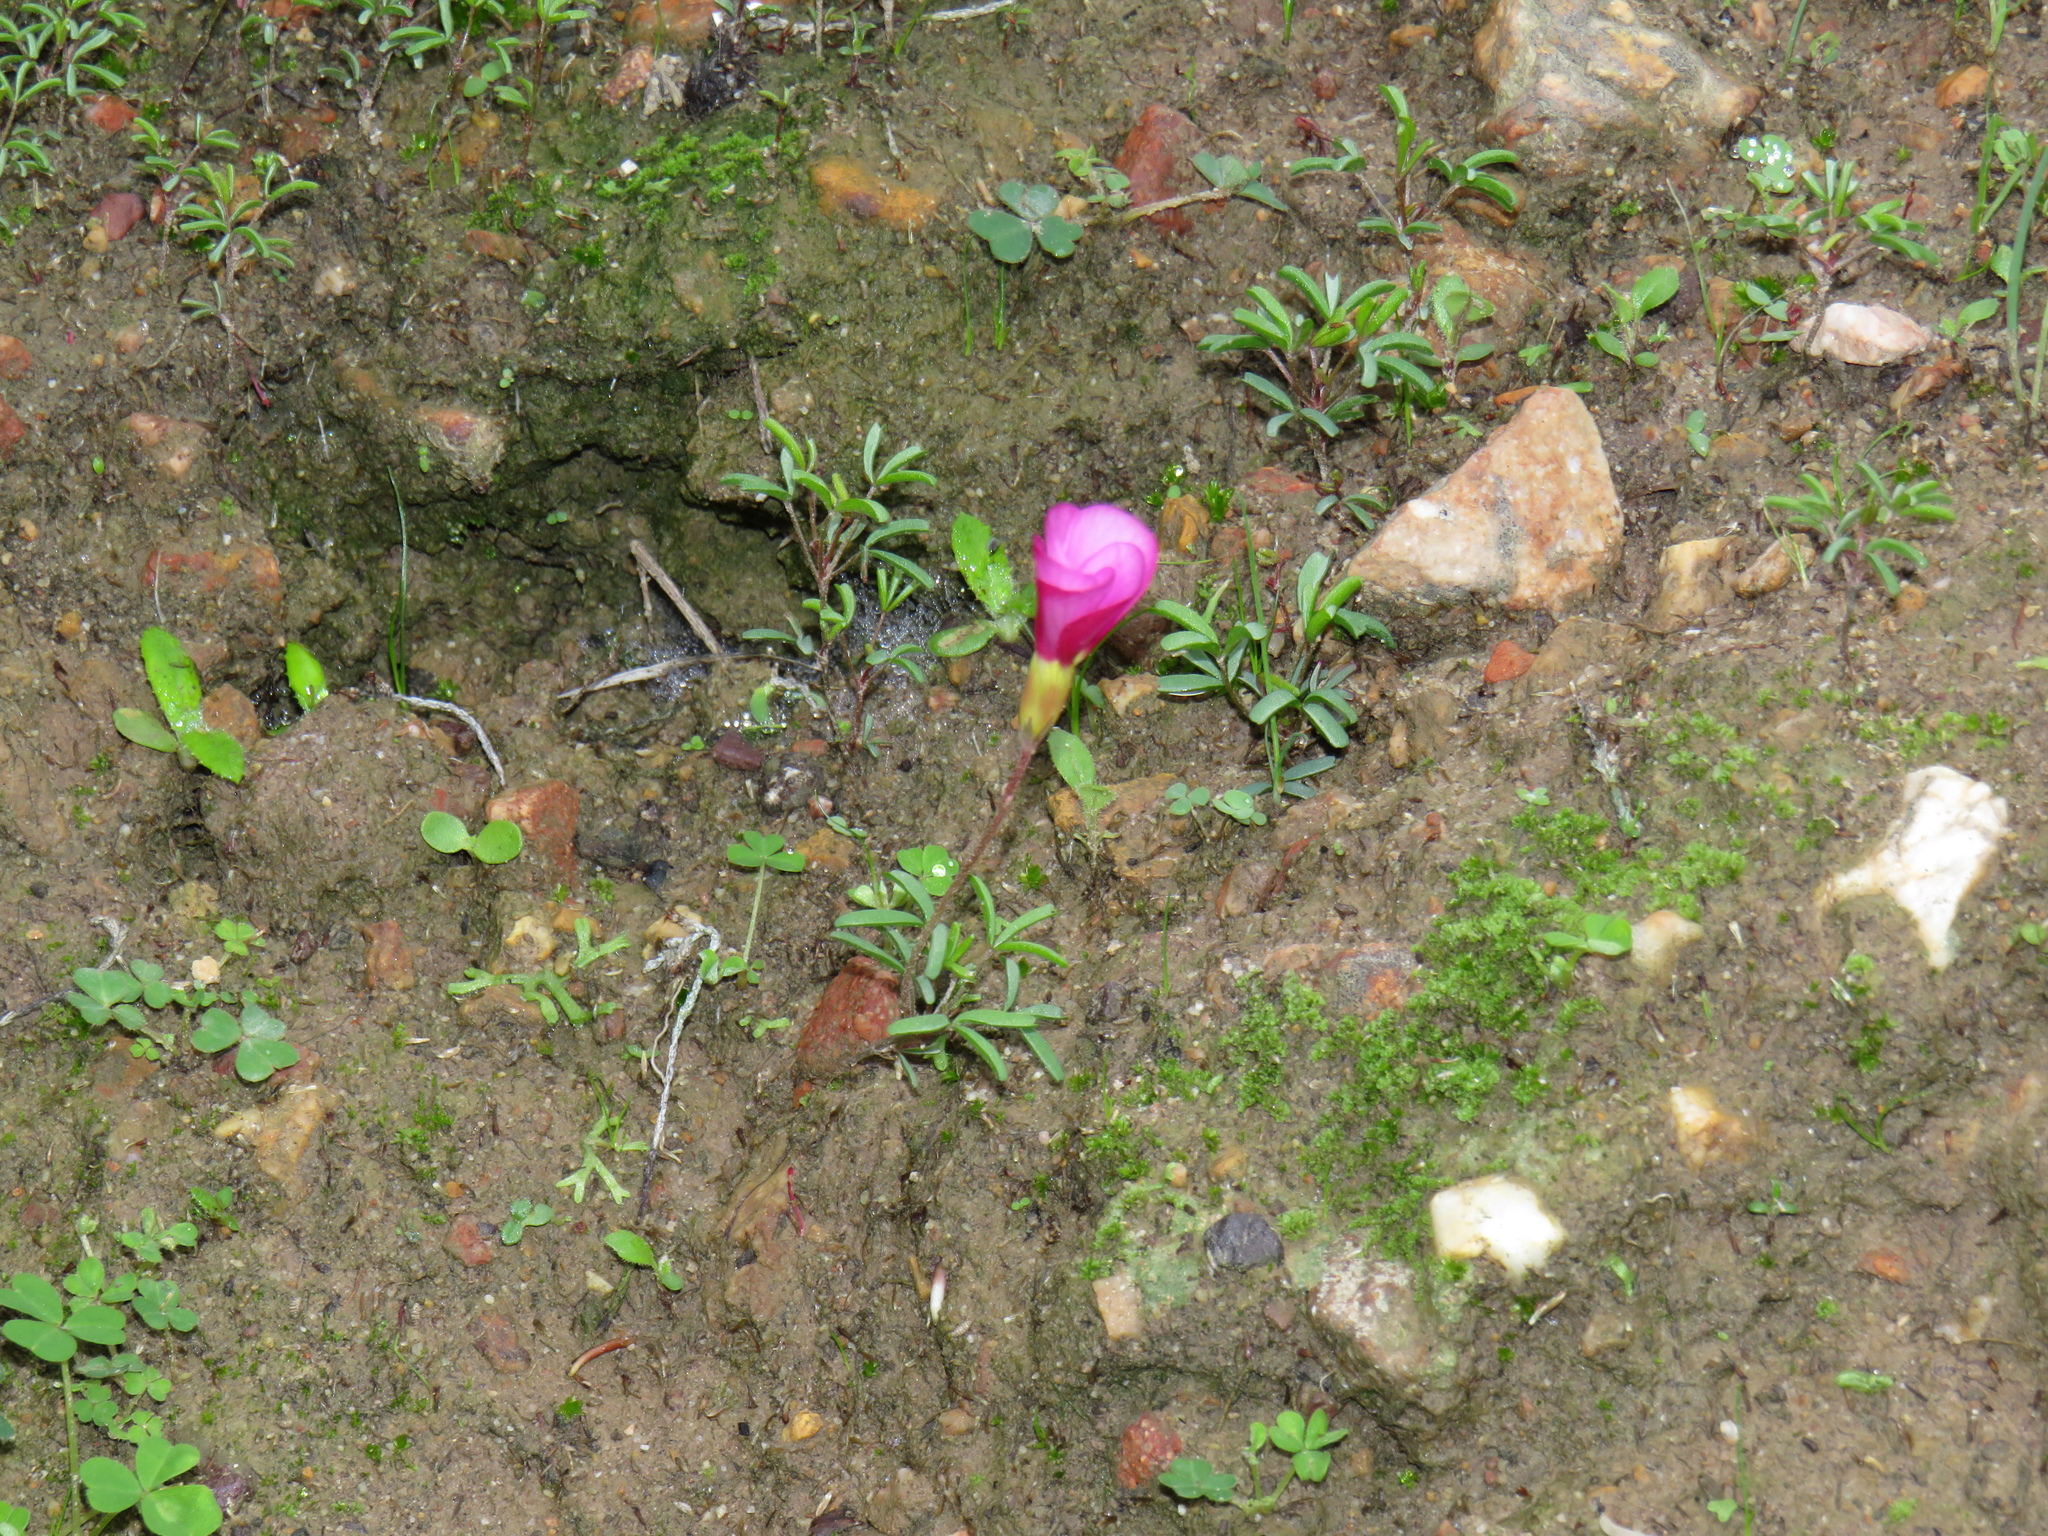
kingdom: Plantae
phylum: Tracheophyta
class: Magnoliopsida
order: Oxalidales
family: Oxalidaceae
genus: Oxalis
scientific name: Oxalis glabra
